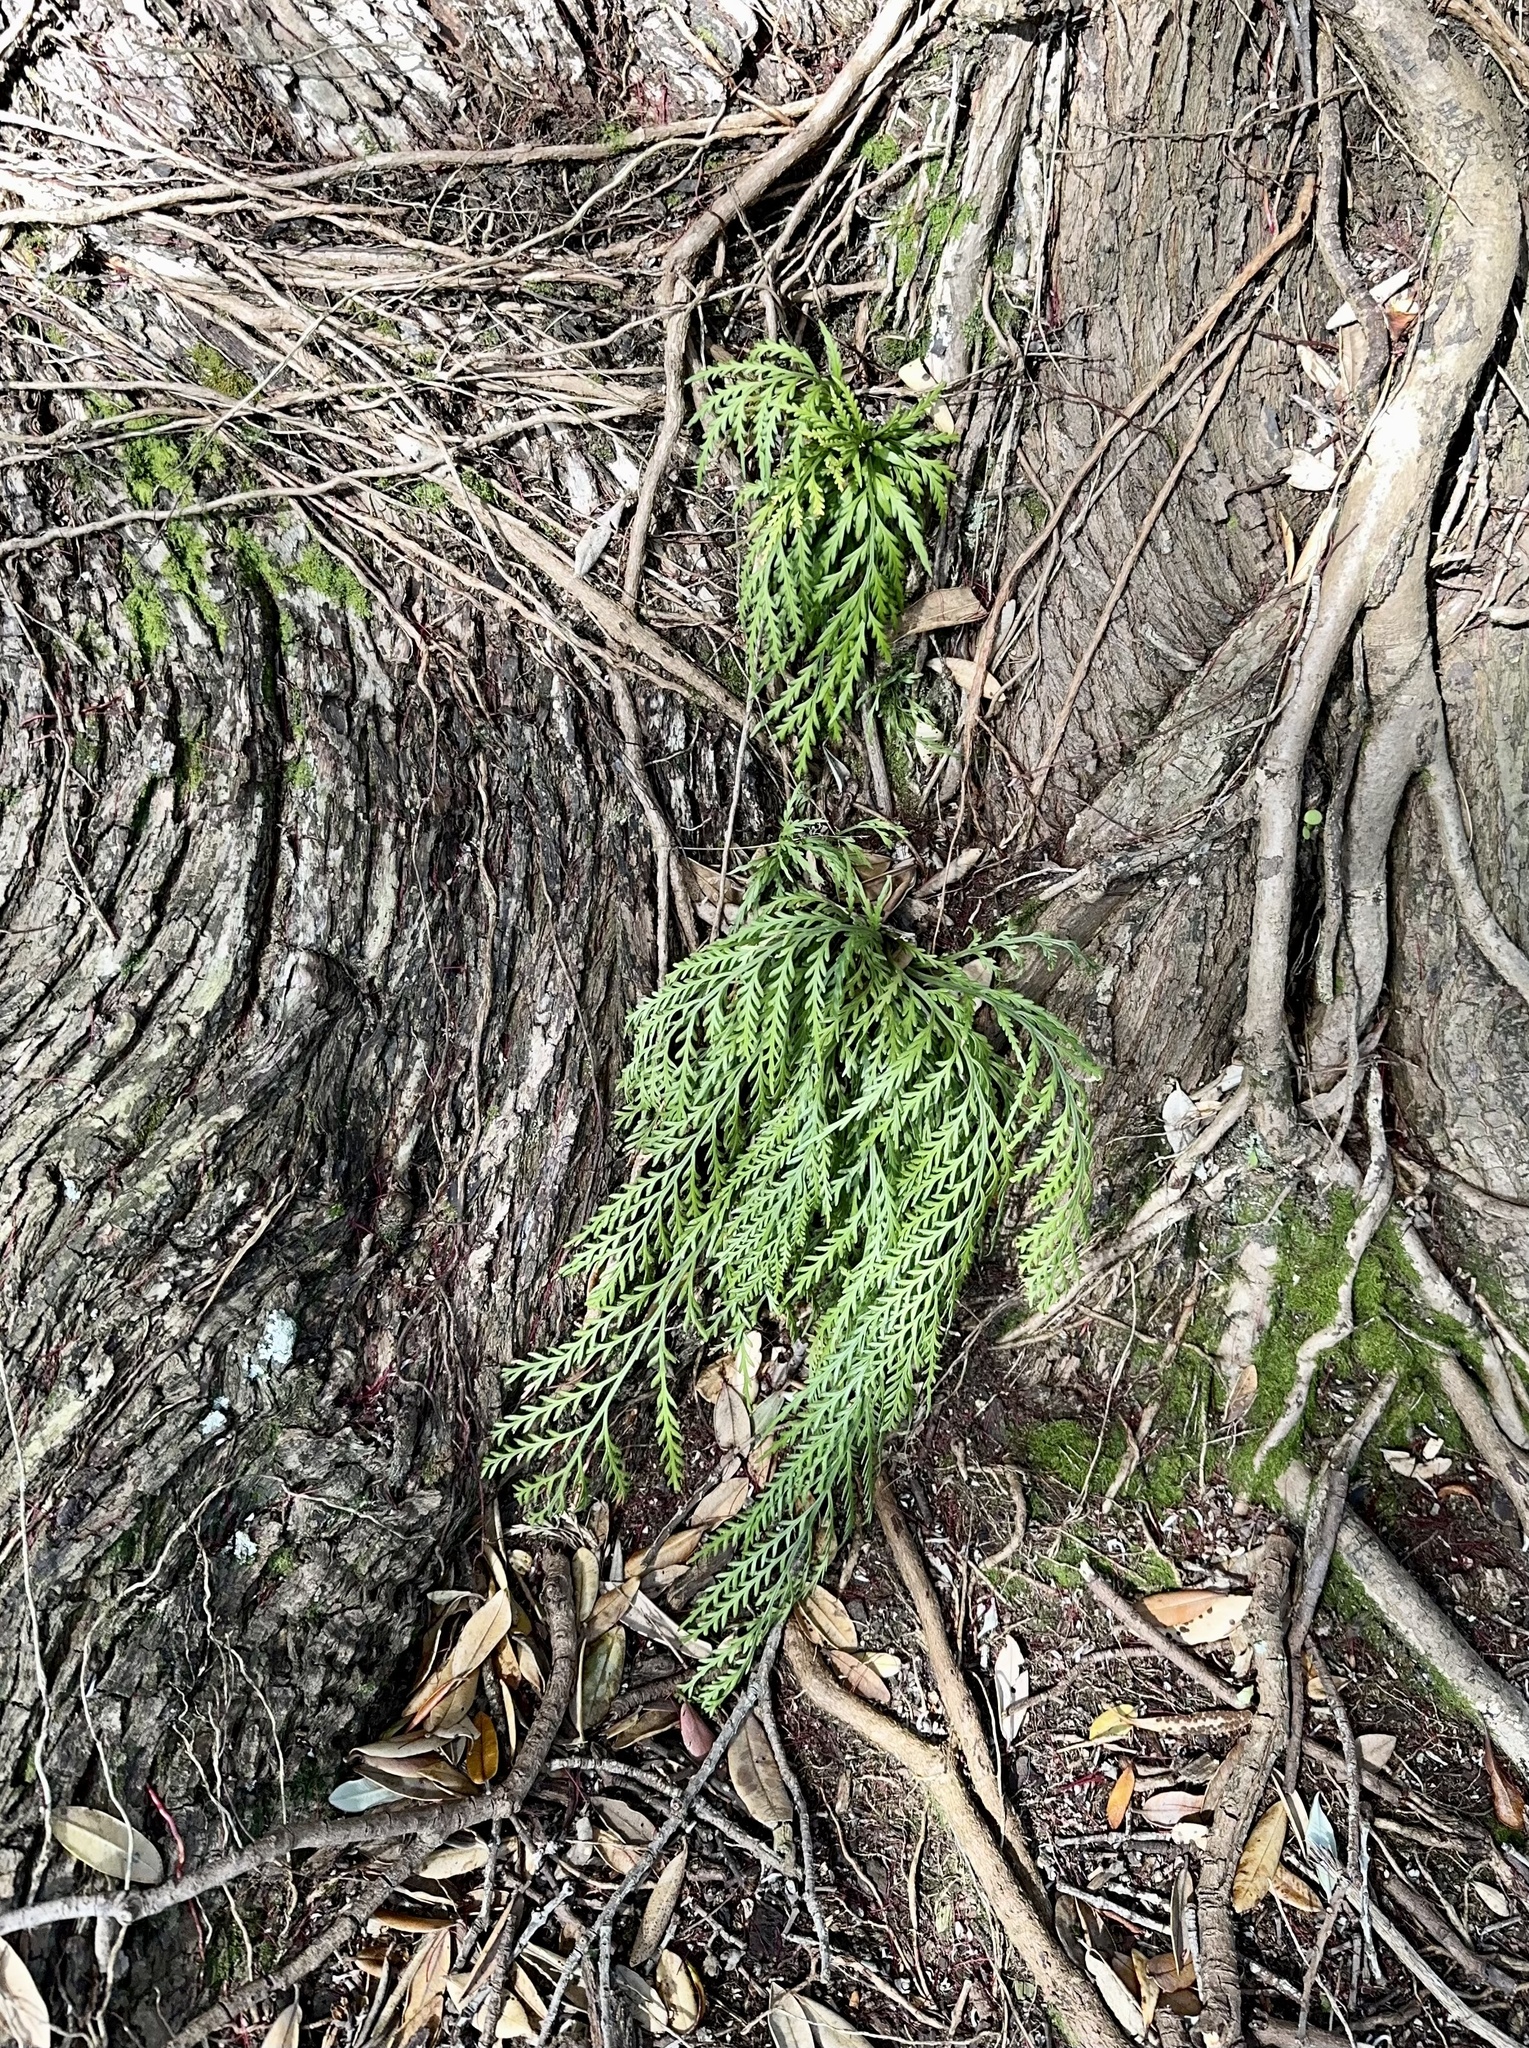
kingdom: Plantae
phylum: Tracheophyta
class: Polypodiopsida
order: Polypodiales
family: Aspleniaceae
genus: Asplenium
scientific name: Asplenium flaccidum
